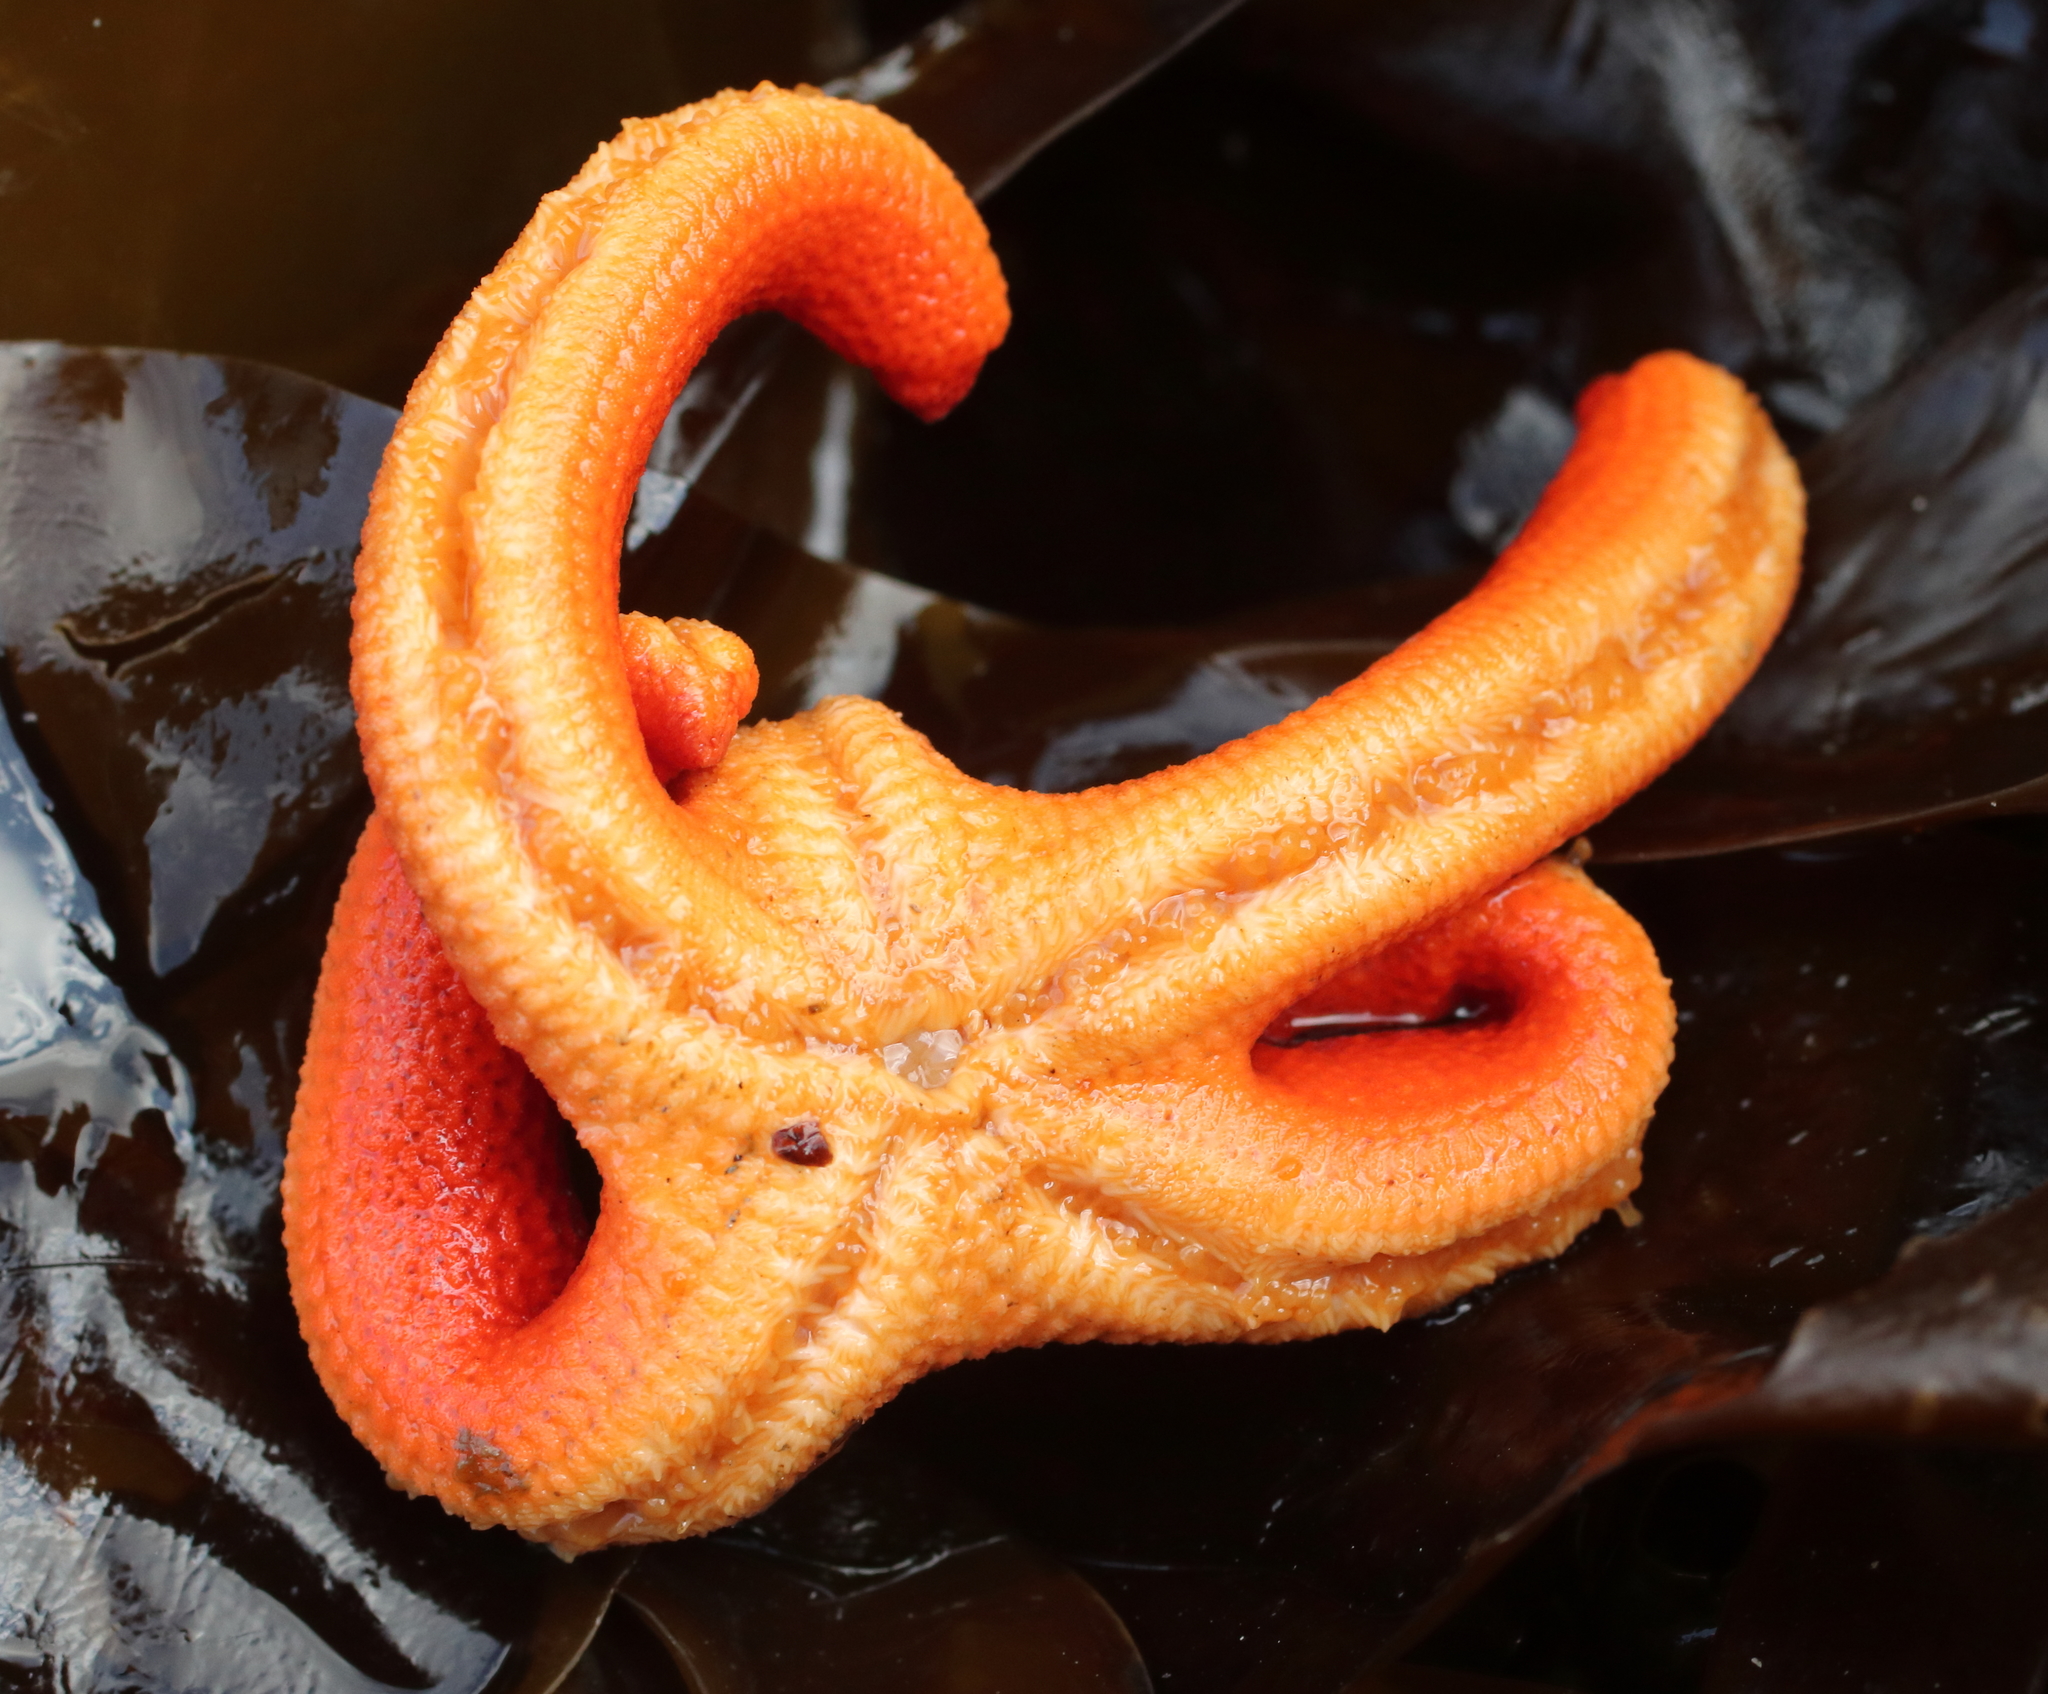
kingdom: Animalia
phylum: Echinodermata
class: Asteroidea
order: Spinulosida
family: Echinasteridae
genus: Henricia
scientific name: Henricia
